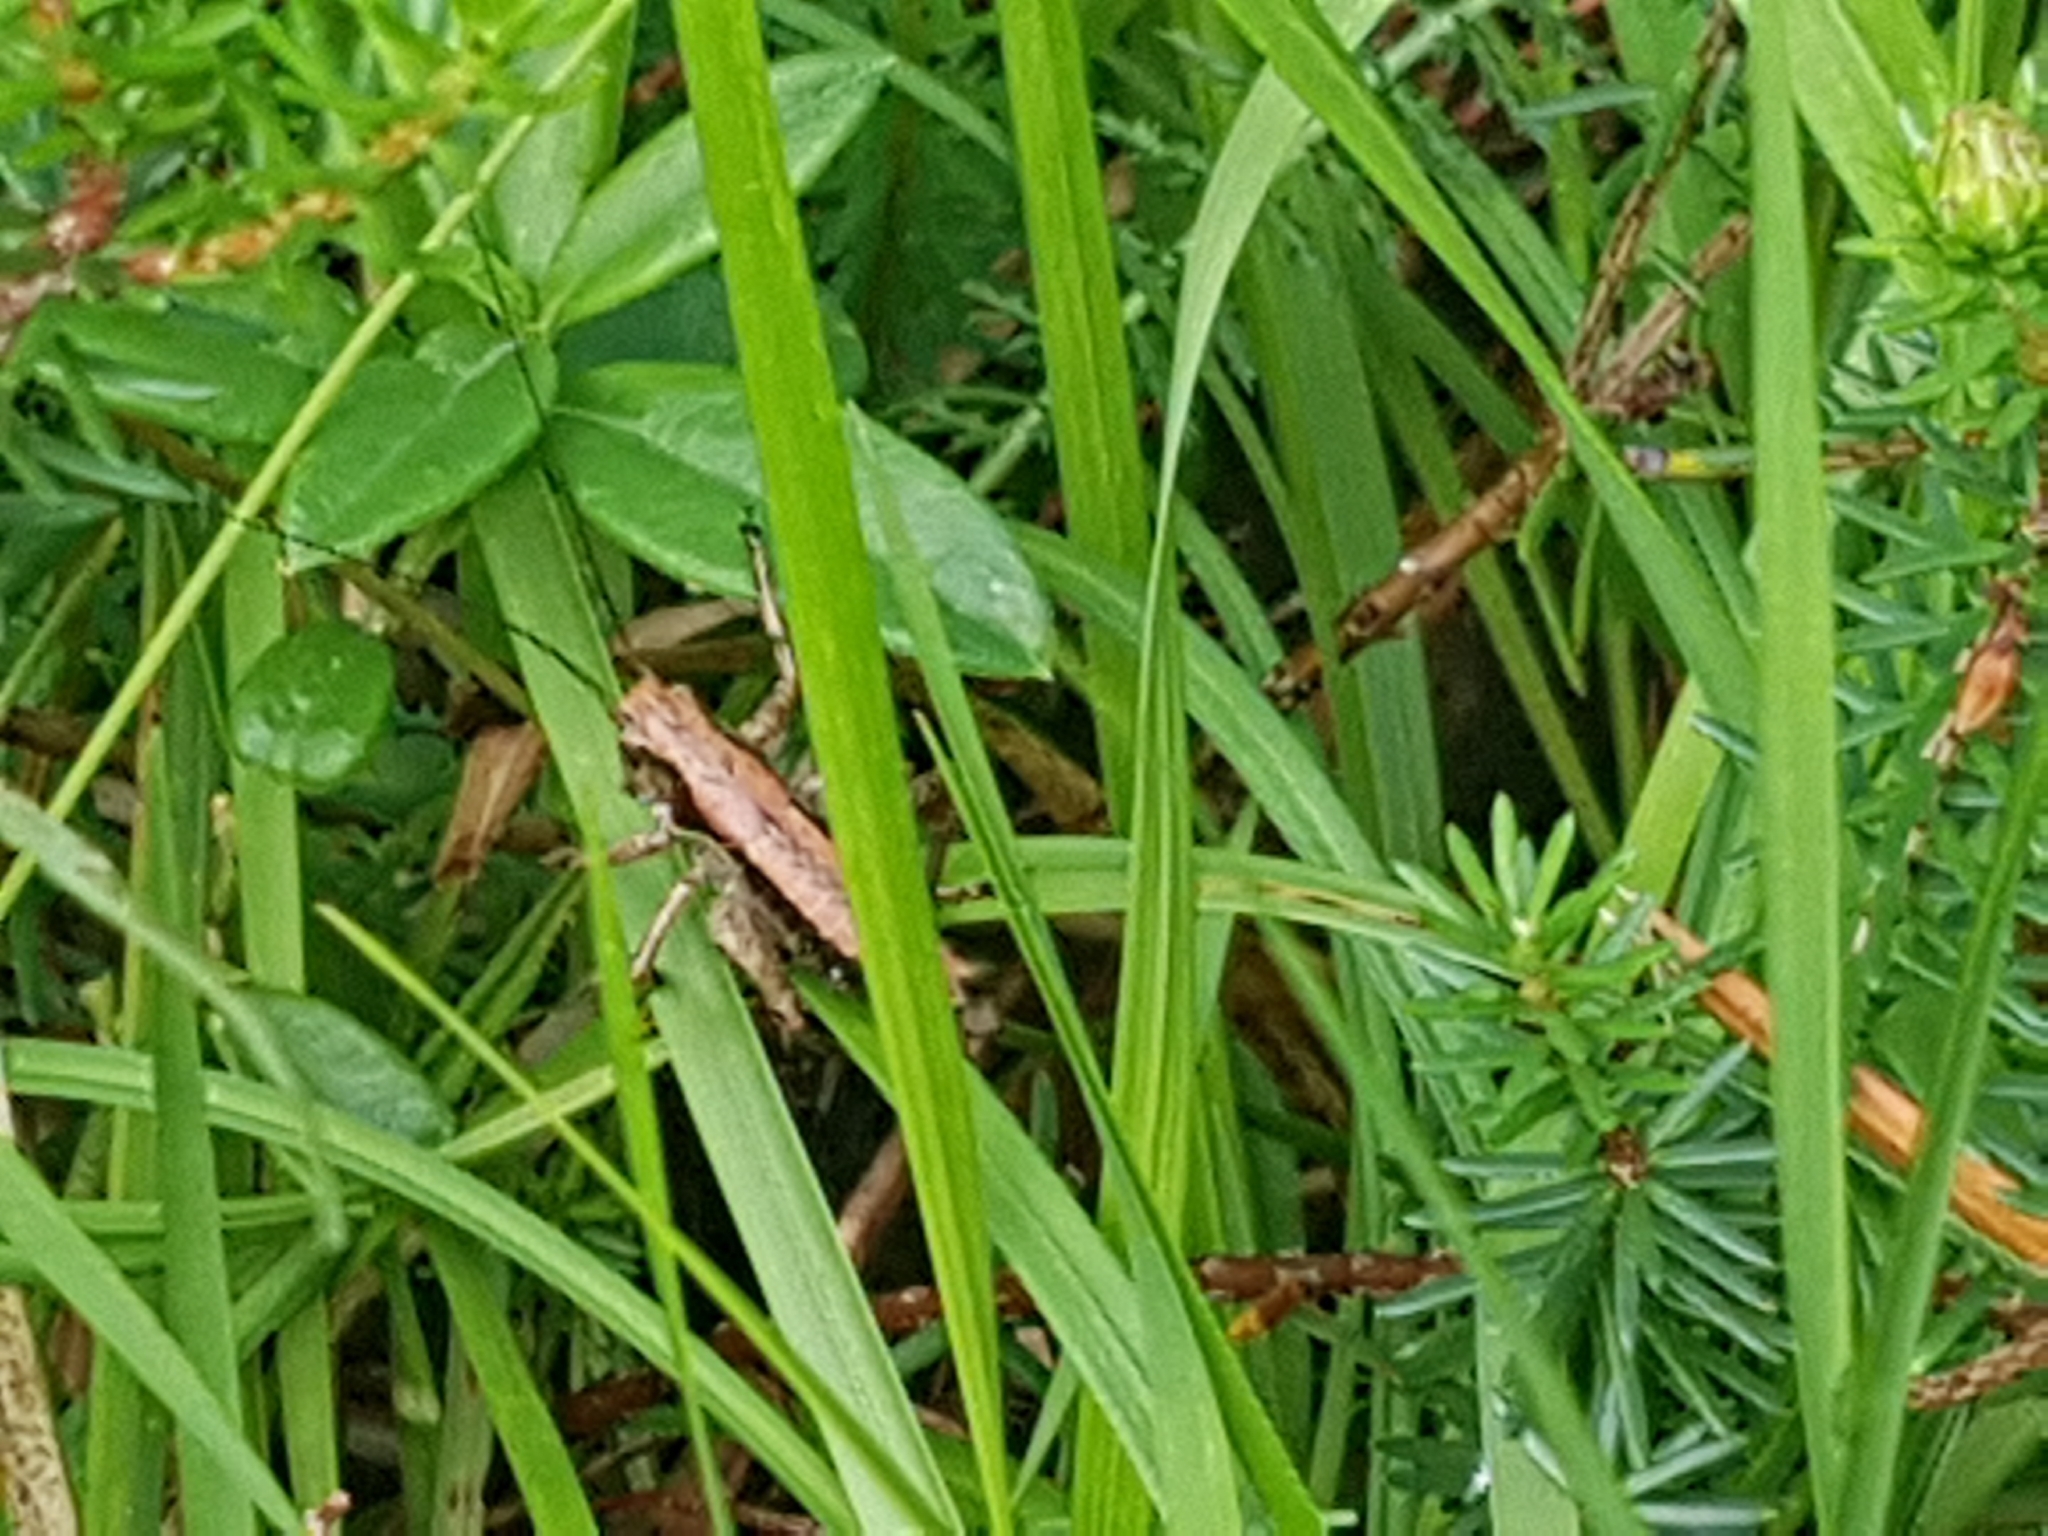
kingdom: Animalia
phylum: Arthropoda
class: Insecta
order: Orthoptera
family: Tettigoniidae
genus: Pholidoptera
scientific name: Pholidoptera griseoaptera
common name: Dark bush-cricket
